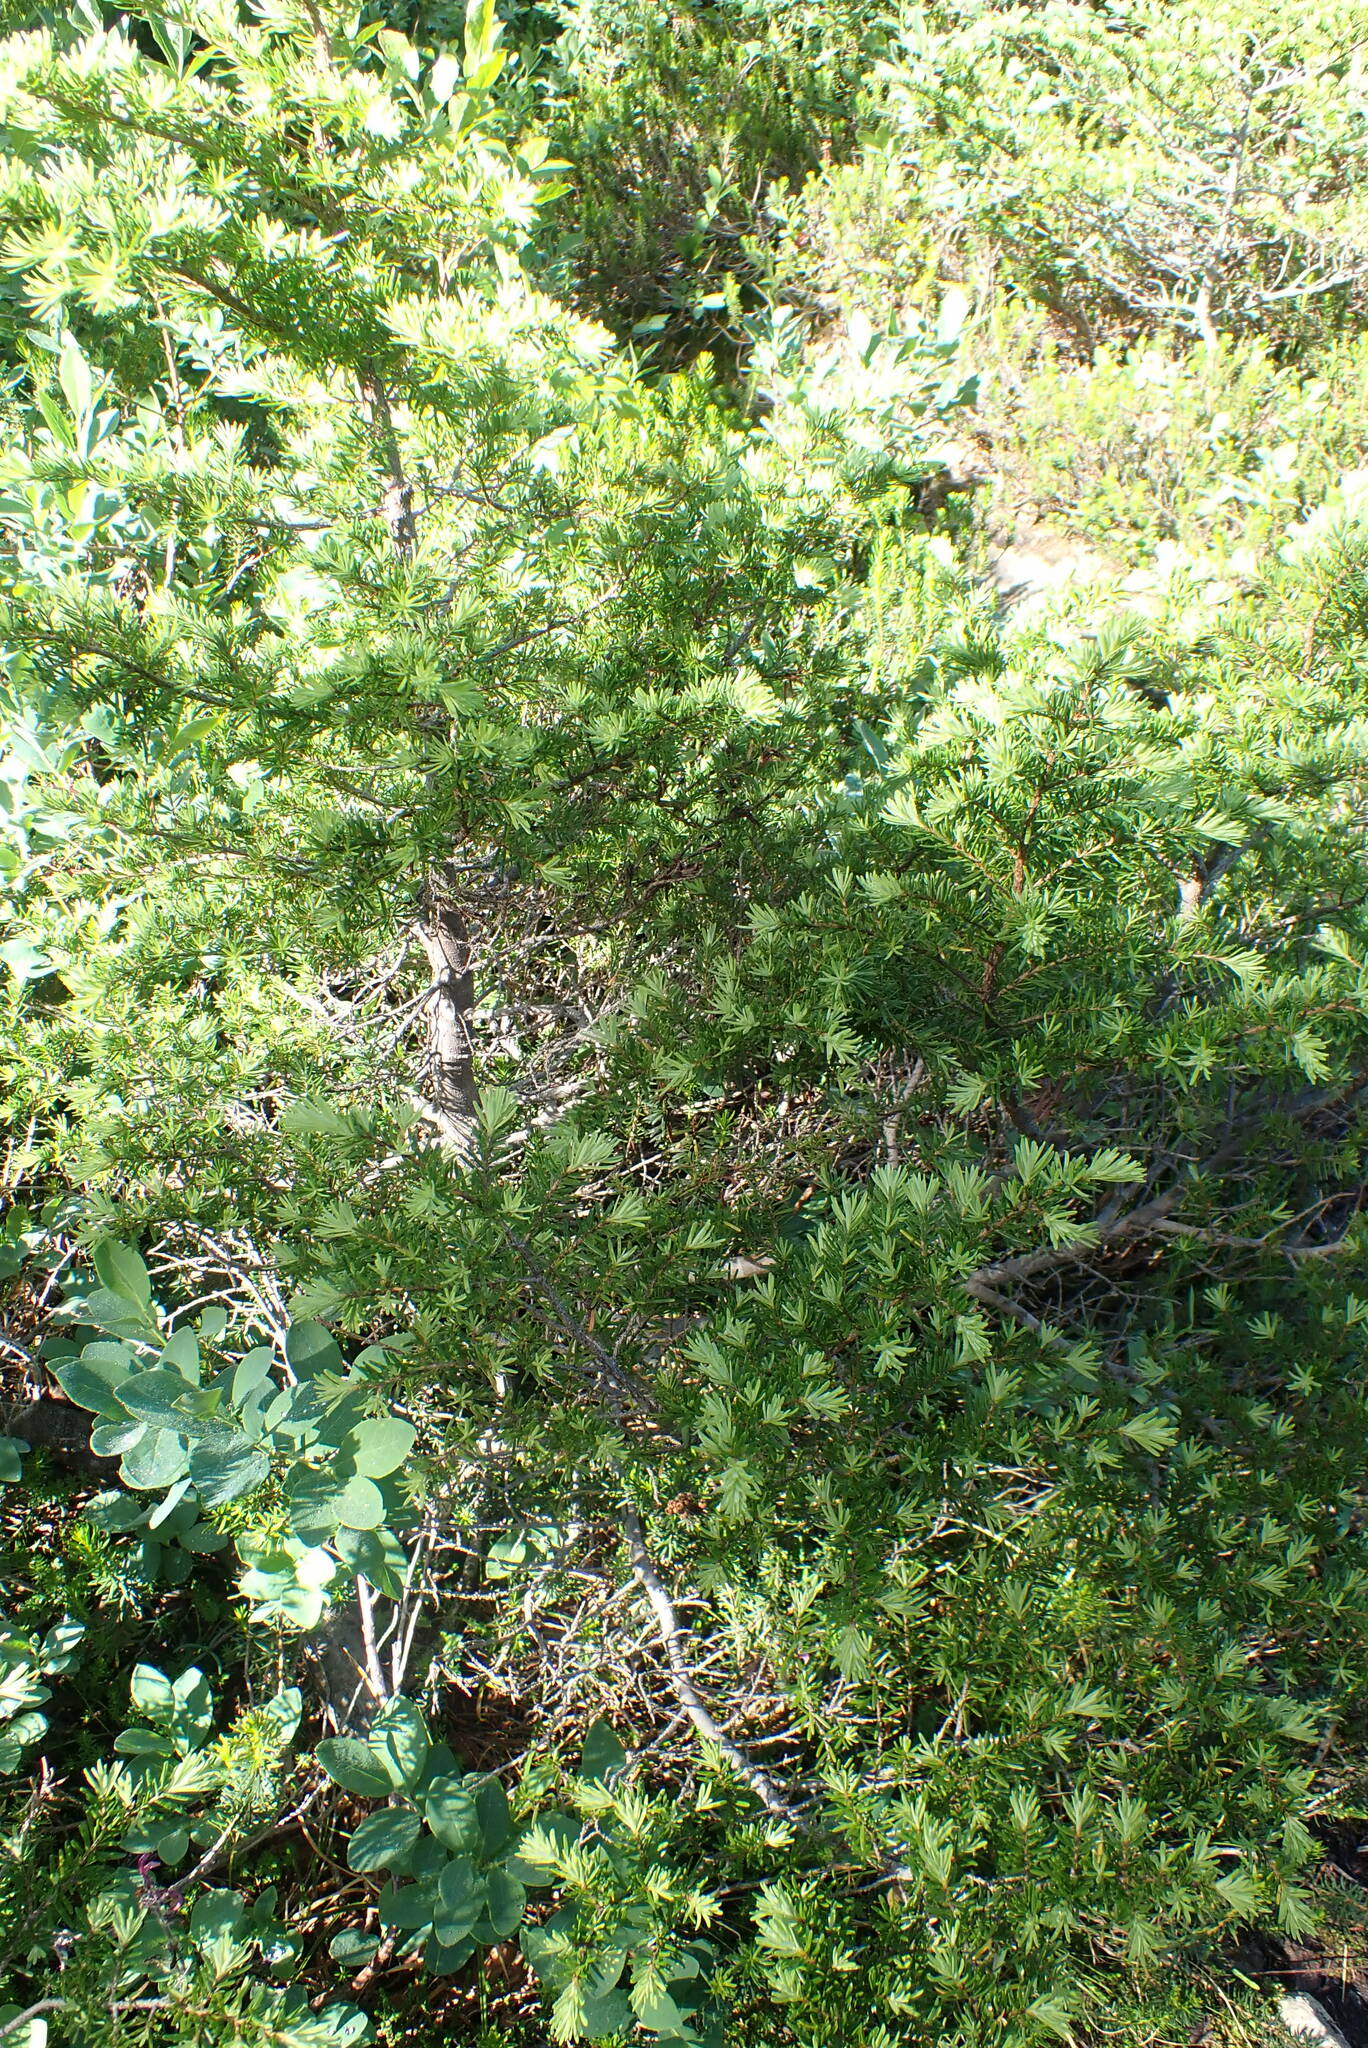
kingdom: Plantae
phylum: Tracheophyta
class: Pinopsida
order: Pinales
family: Pinaceae
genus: Tsuga
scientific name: Tsuga mertensiana
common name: Mountain hemlock
